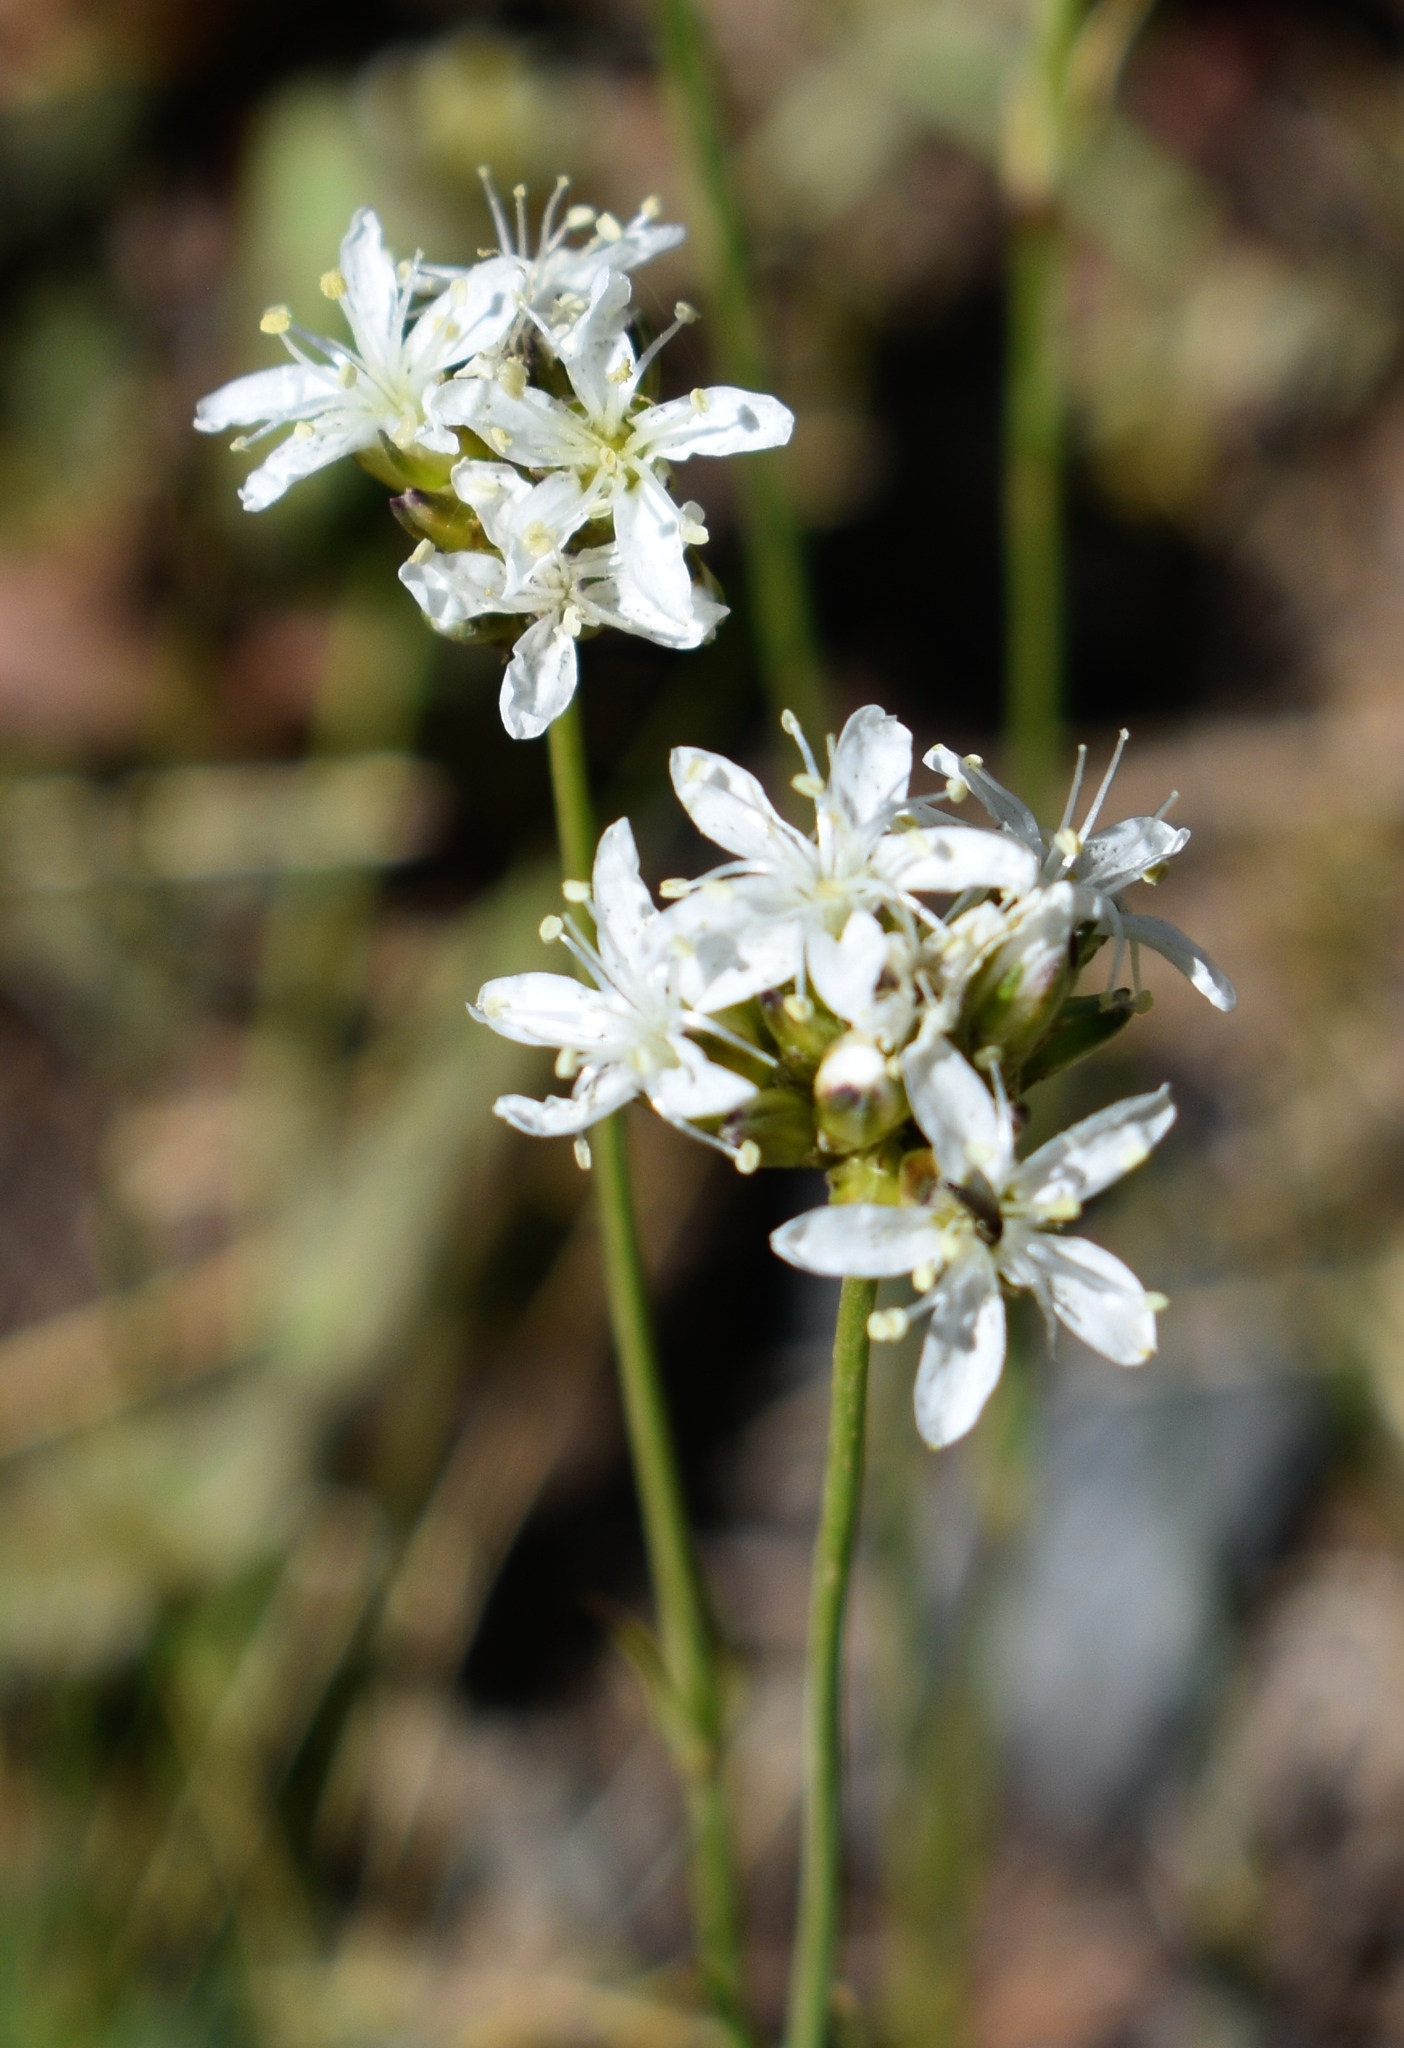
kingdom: Plantae
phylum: Tracheophyta
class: Magnoliopsida
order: Caryophyllales
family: Caryophyllaceae
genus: Eremogone
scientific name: Eremogone congesta
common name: Ballhead sandwort
